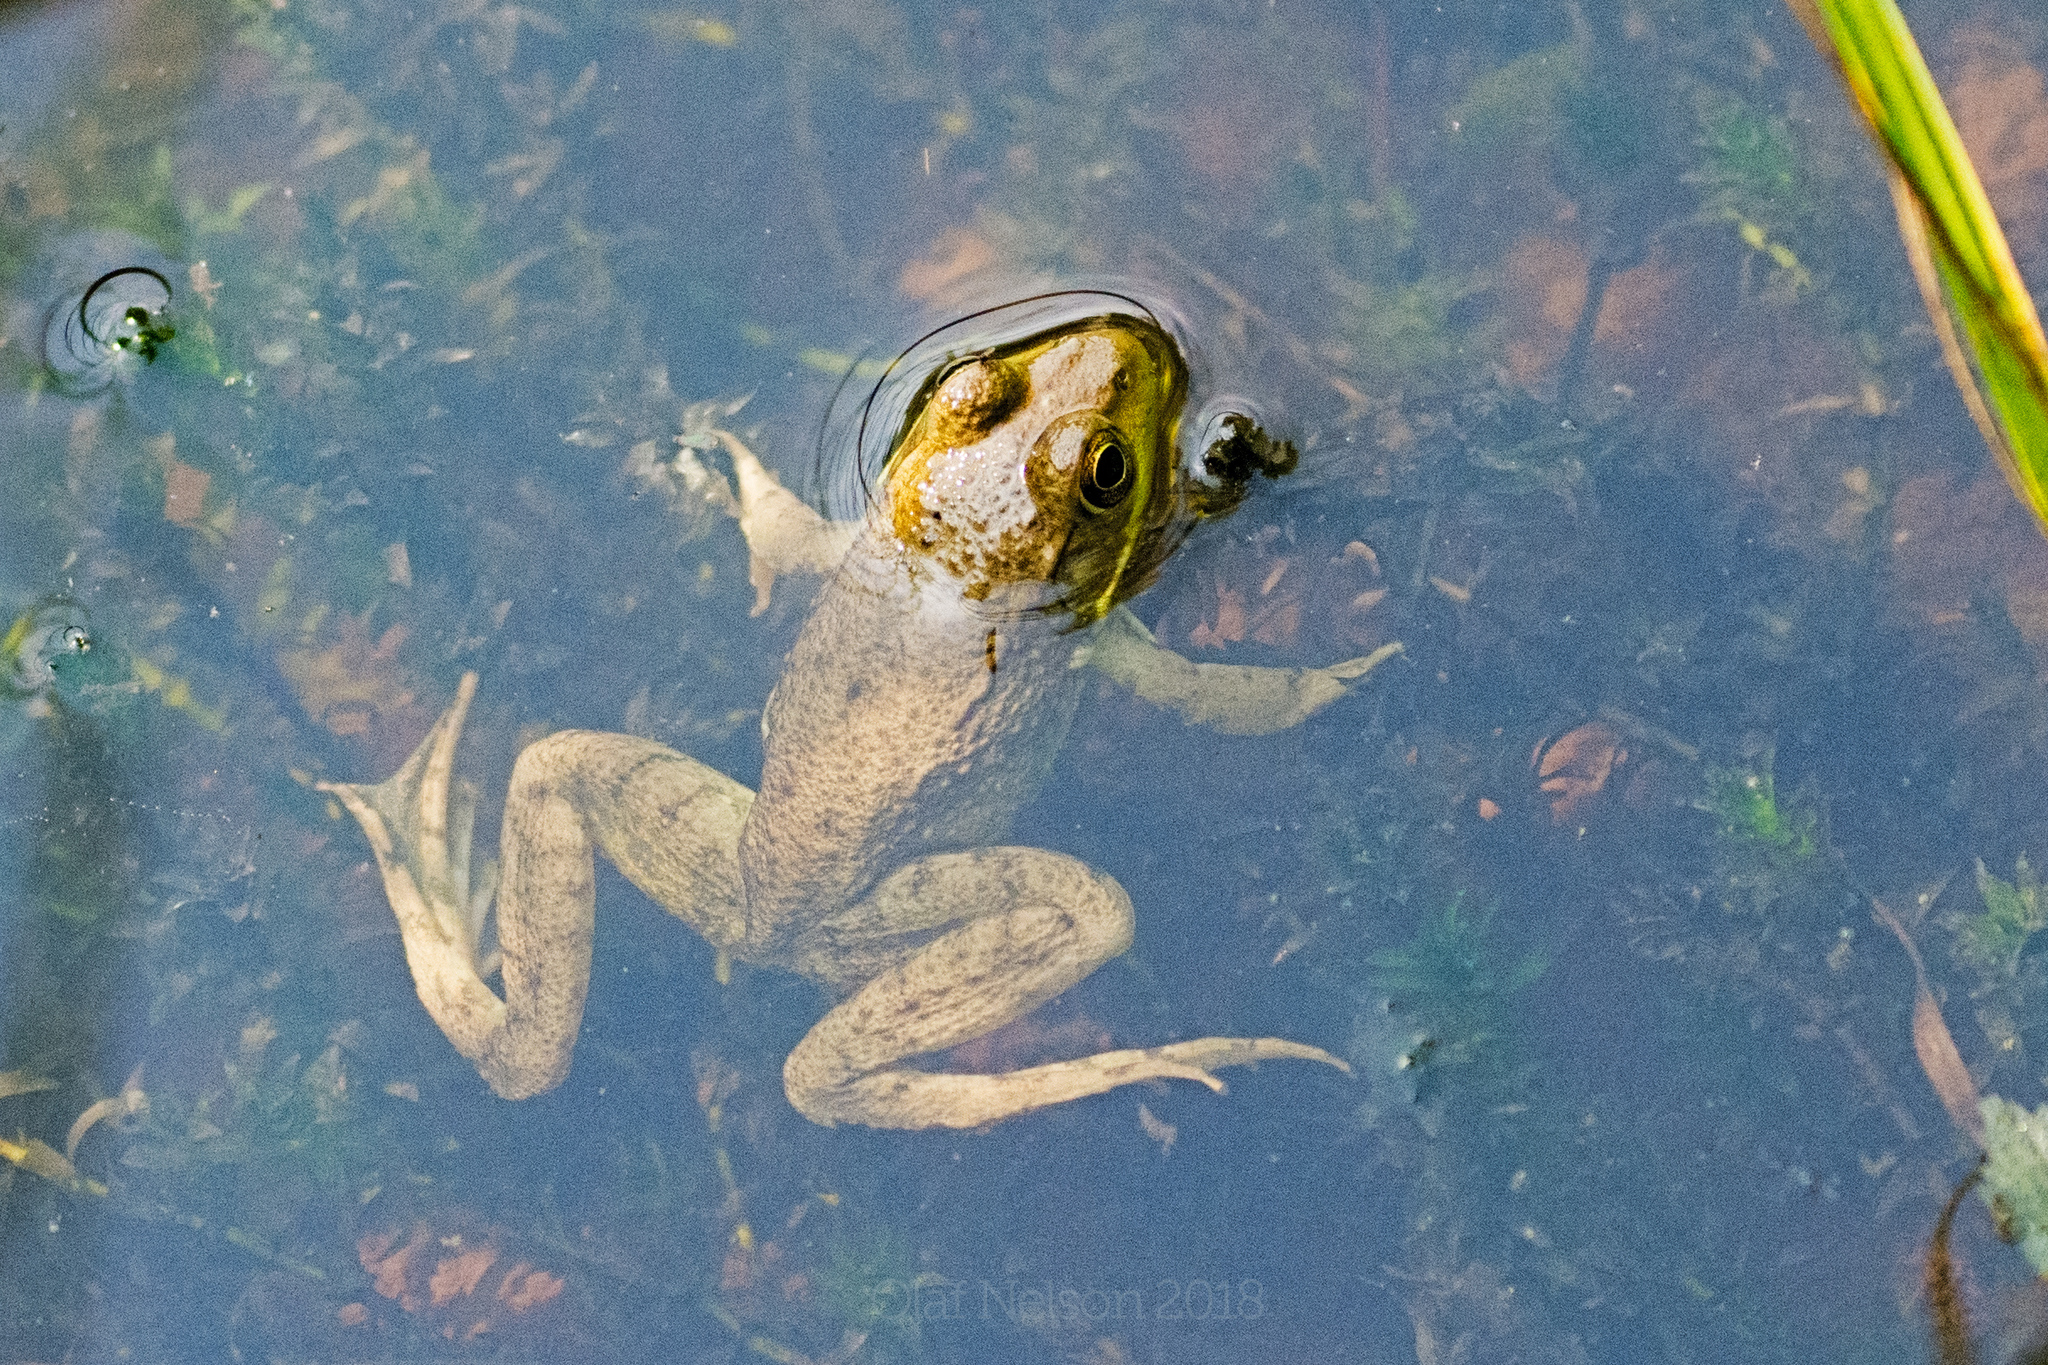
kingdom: Animalia
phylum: Chordata
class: Amphibia
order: Anura
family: Ranidae
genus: Lithobates
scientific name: Lithobates clamitans
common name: Green frog
